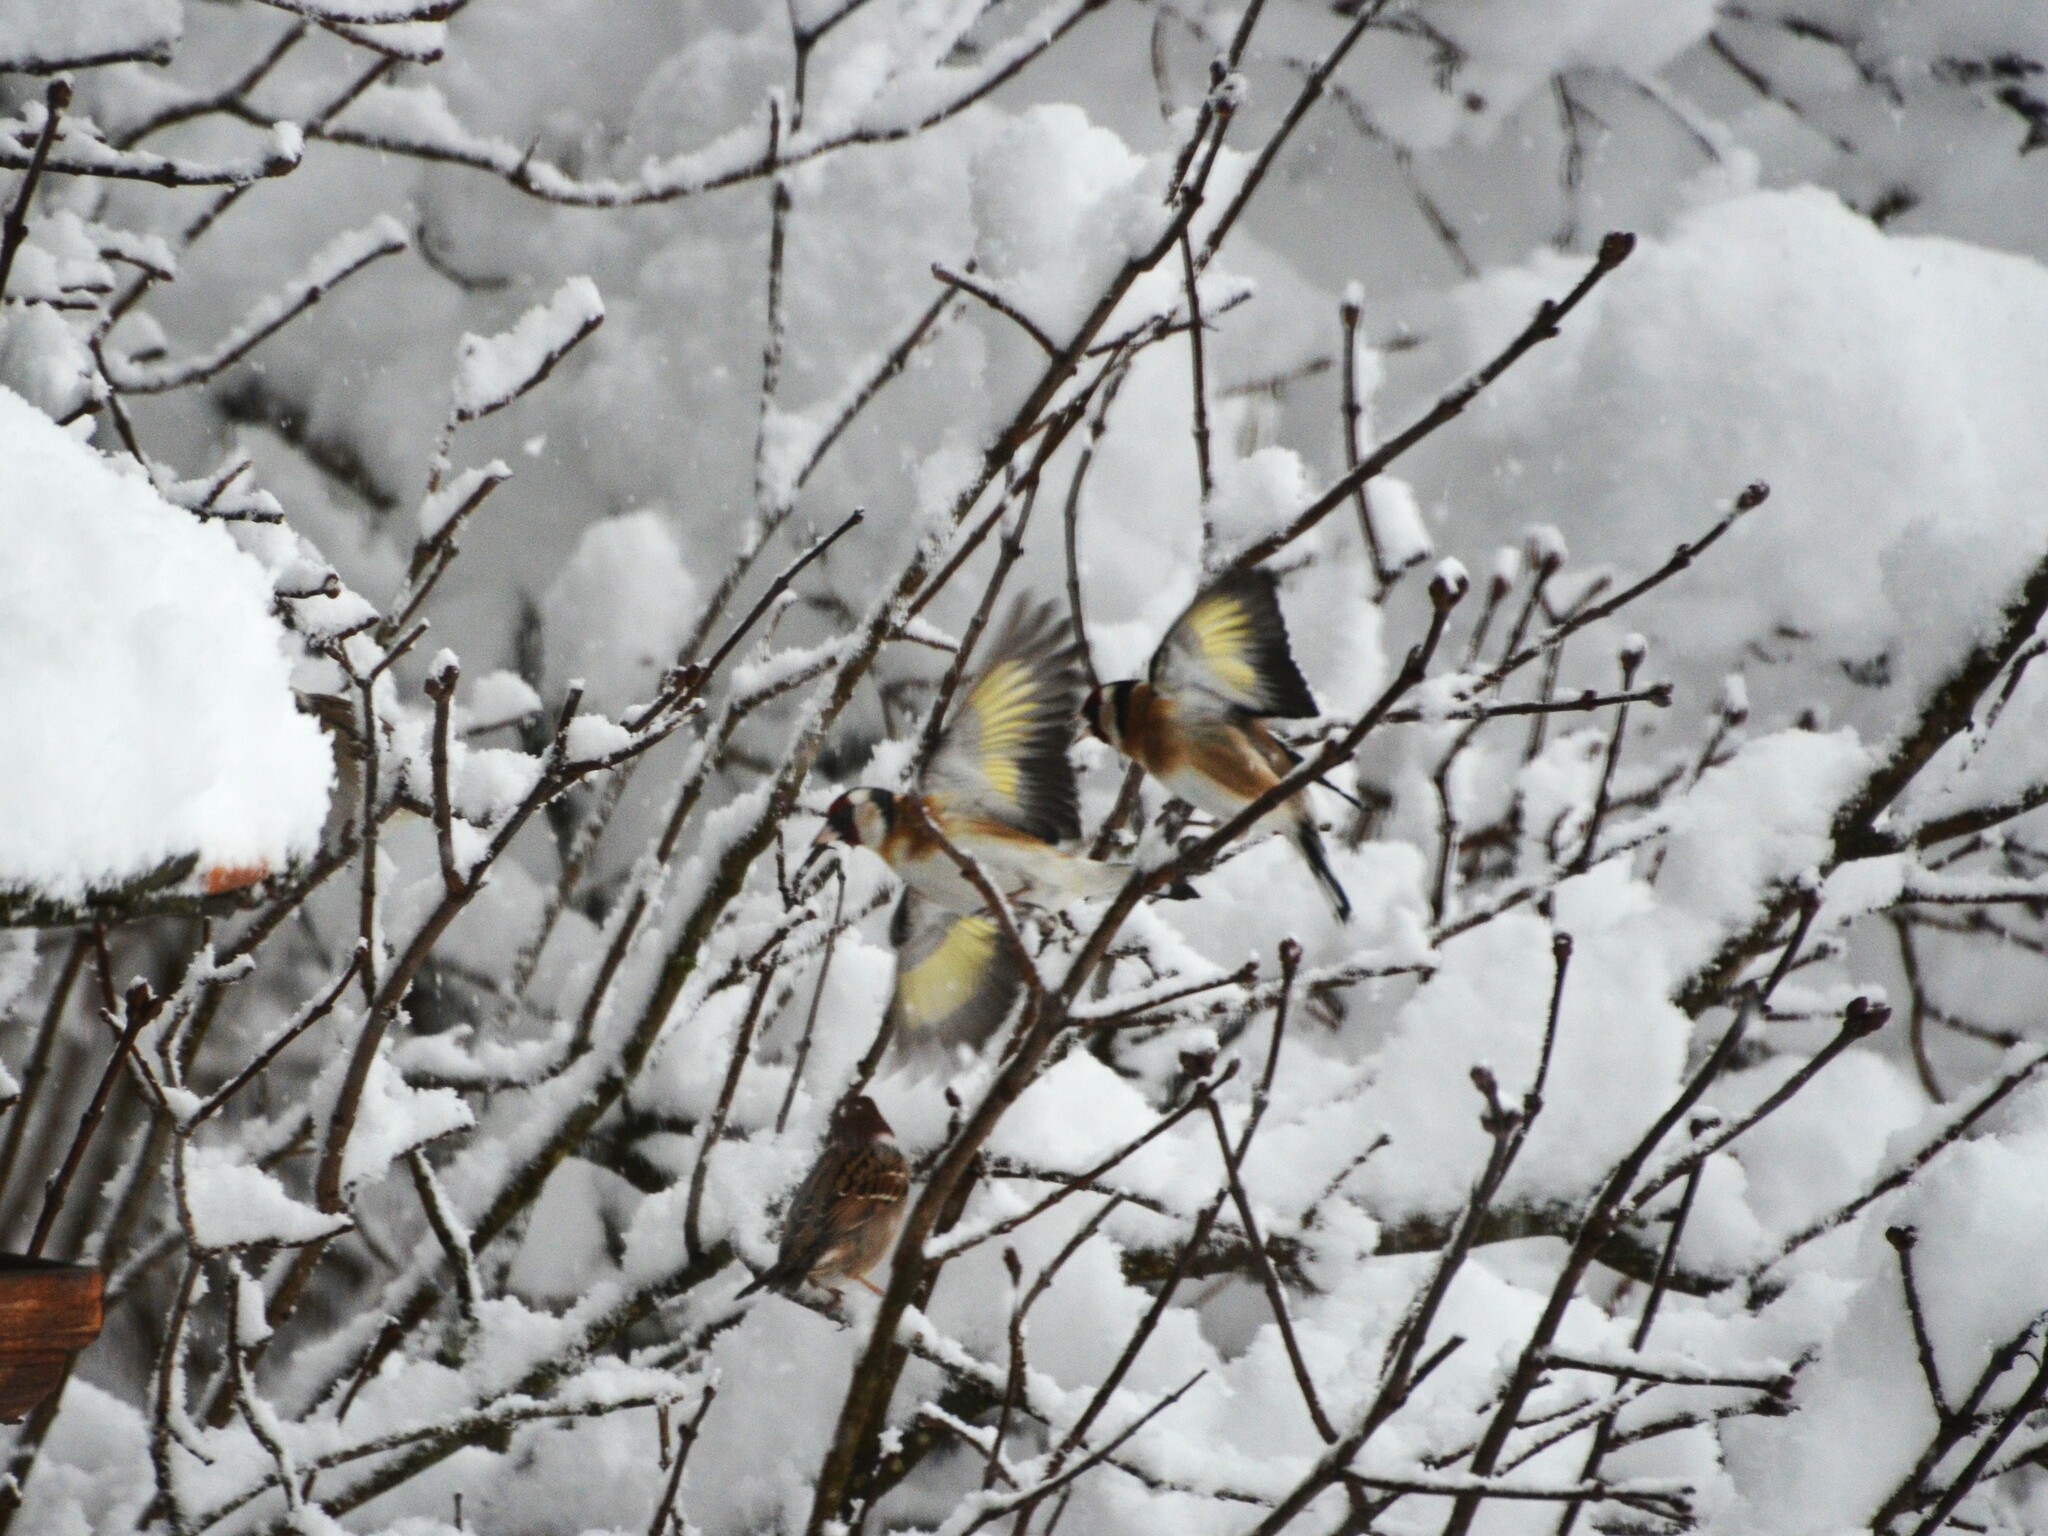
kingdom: Animalia
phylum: Chordata
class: Aves
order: Passeriformes
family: Fringillidae
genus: Carduelis
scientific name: Carduelis carduelis
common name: European goldfinch
